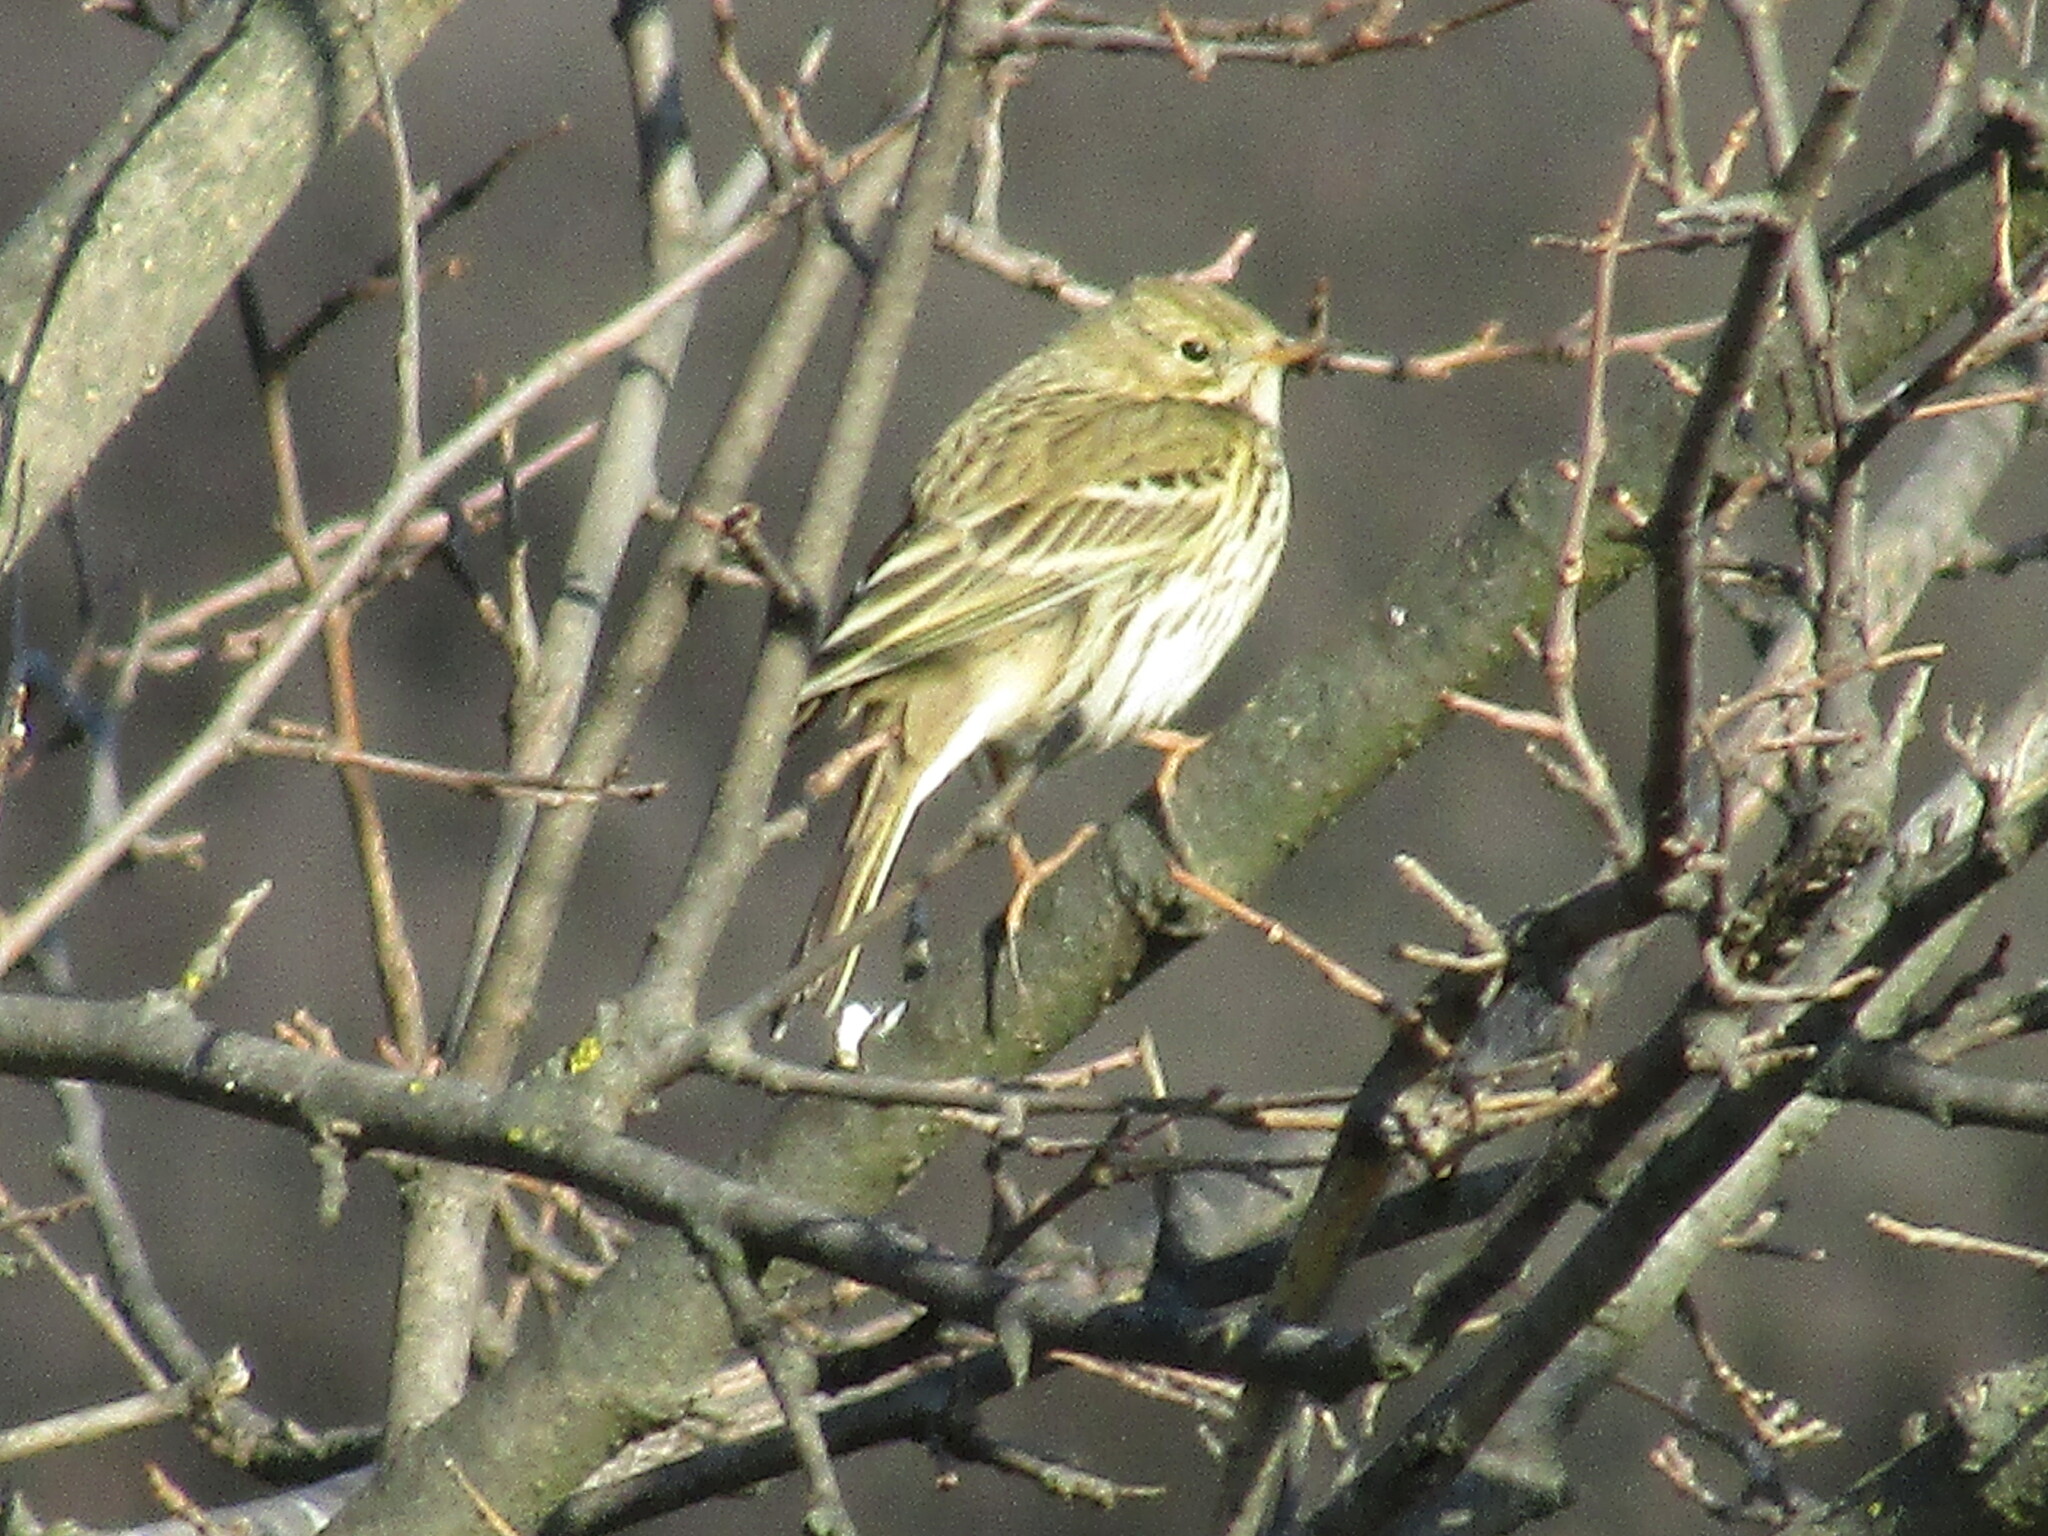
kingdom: Animalia
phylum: Chordata
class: Aves
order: Passeriformes
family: Motacillidae
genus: Anthus
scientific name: Anthus pratensis
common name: Meadow pipit
